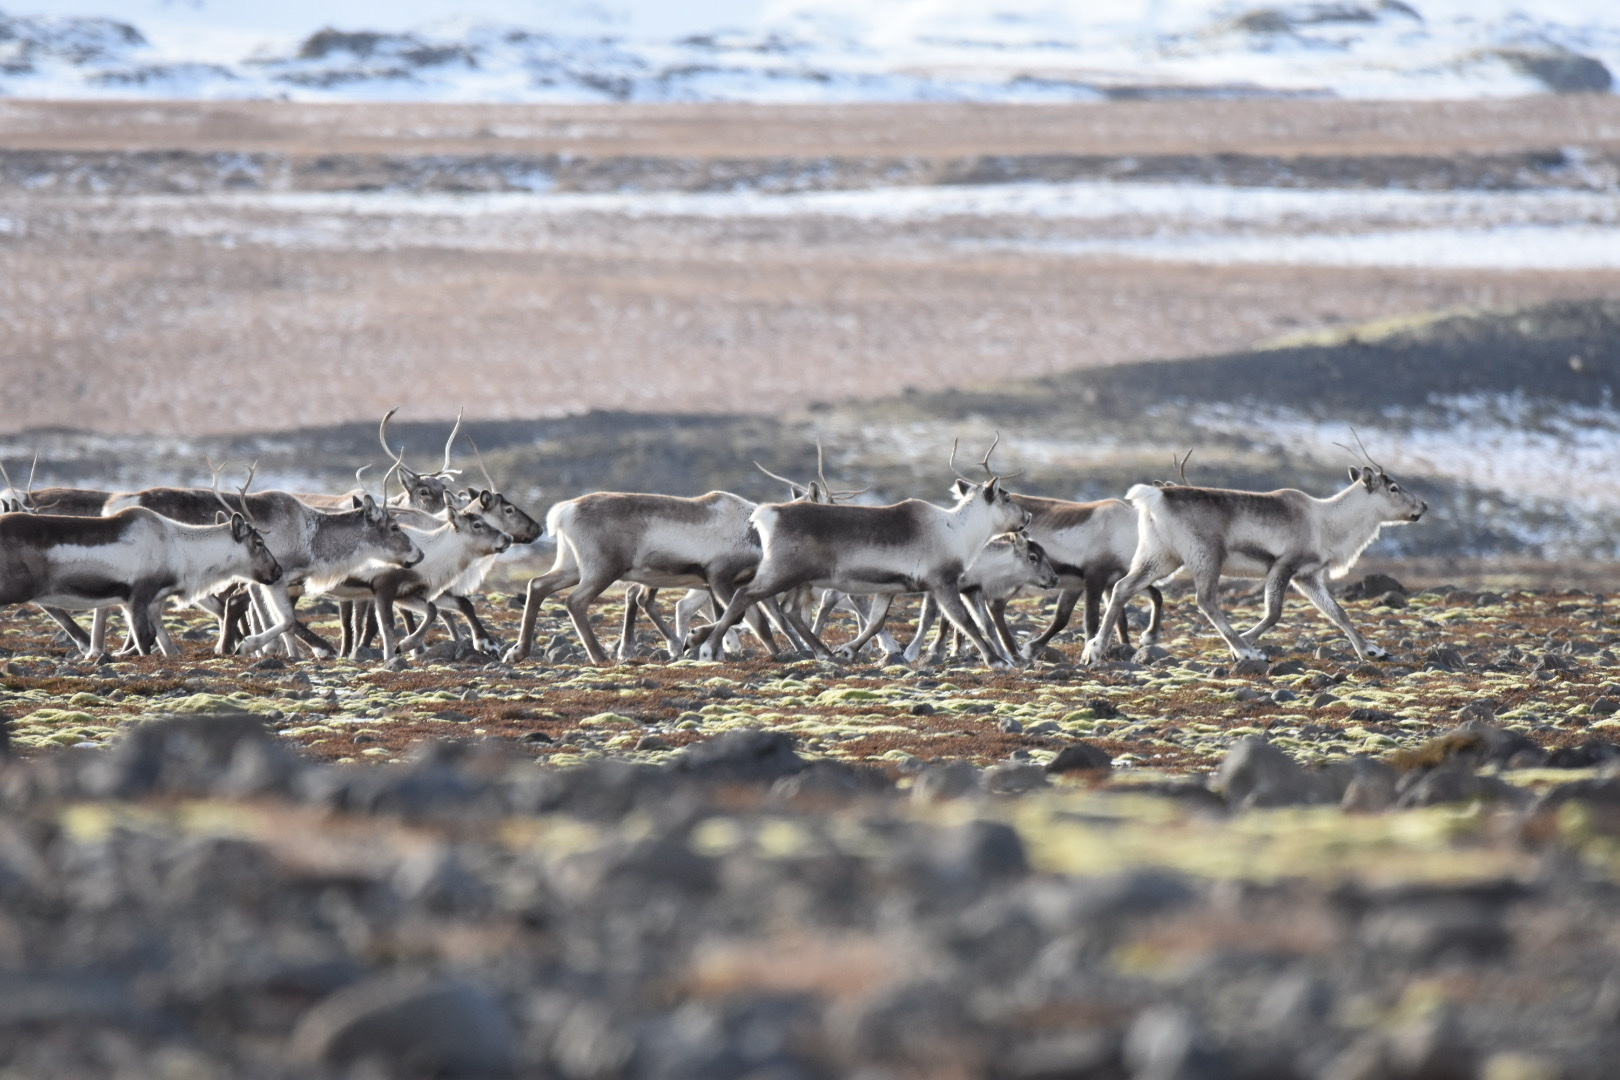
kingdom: Animalia
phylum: Chordata
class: Mammalia
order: Artiodactyla
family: Cervidae
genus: Rangifer
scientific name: Rangifer tarandus
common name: Reindeer
